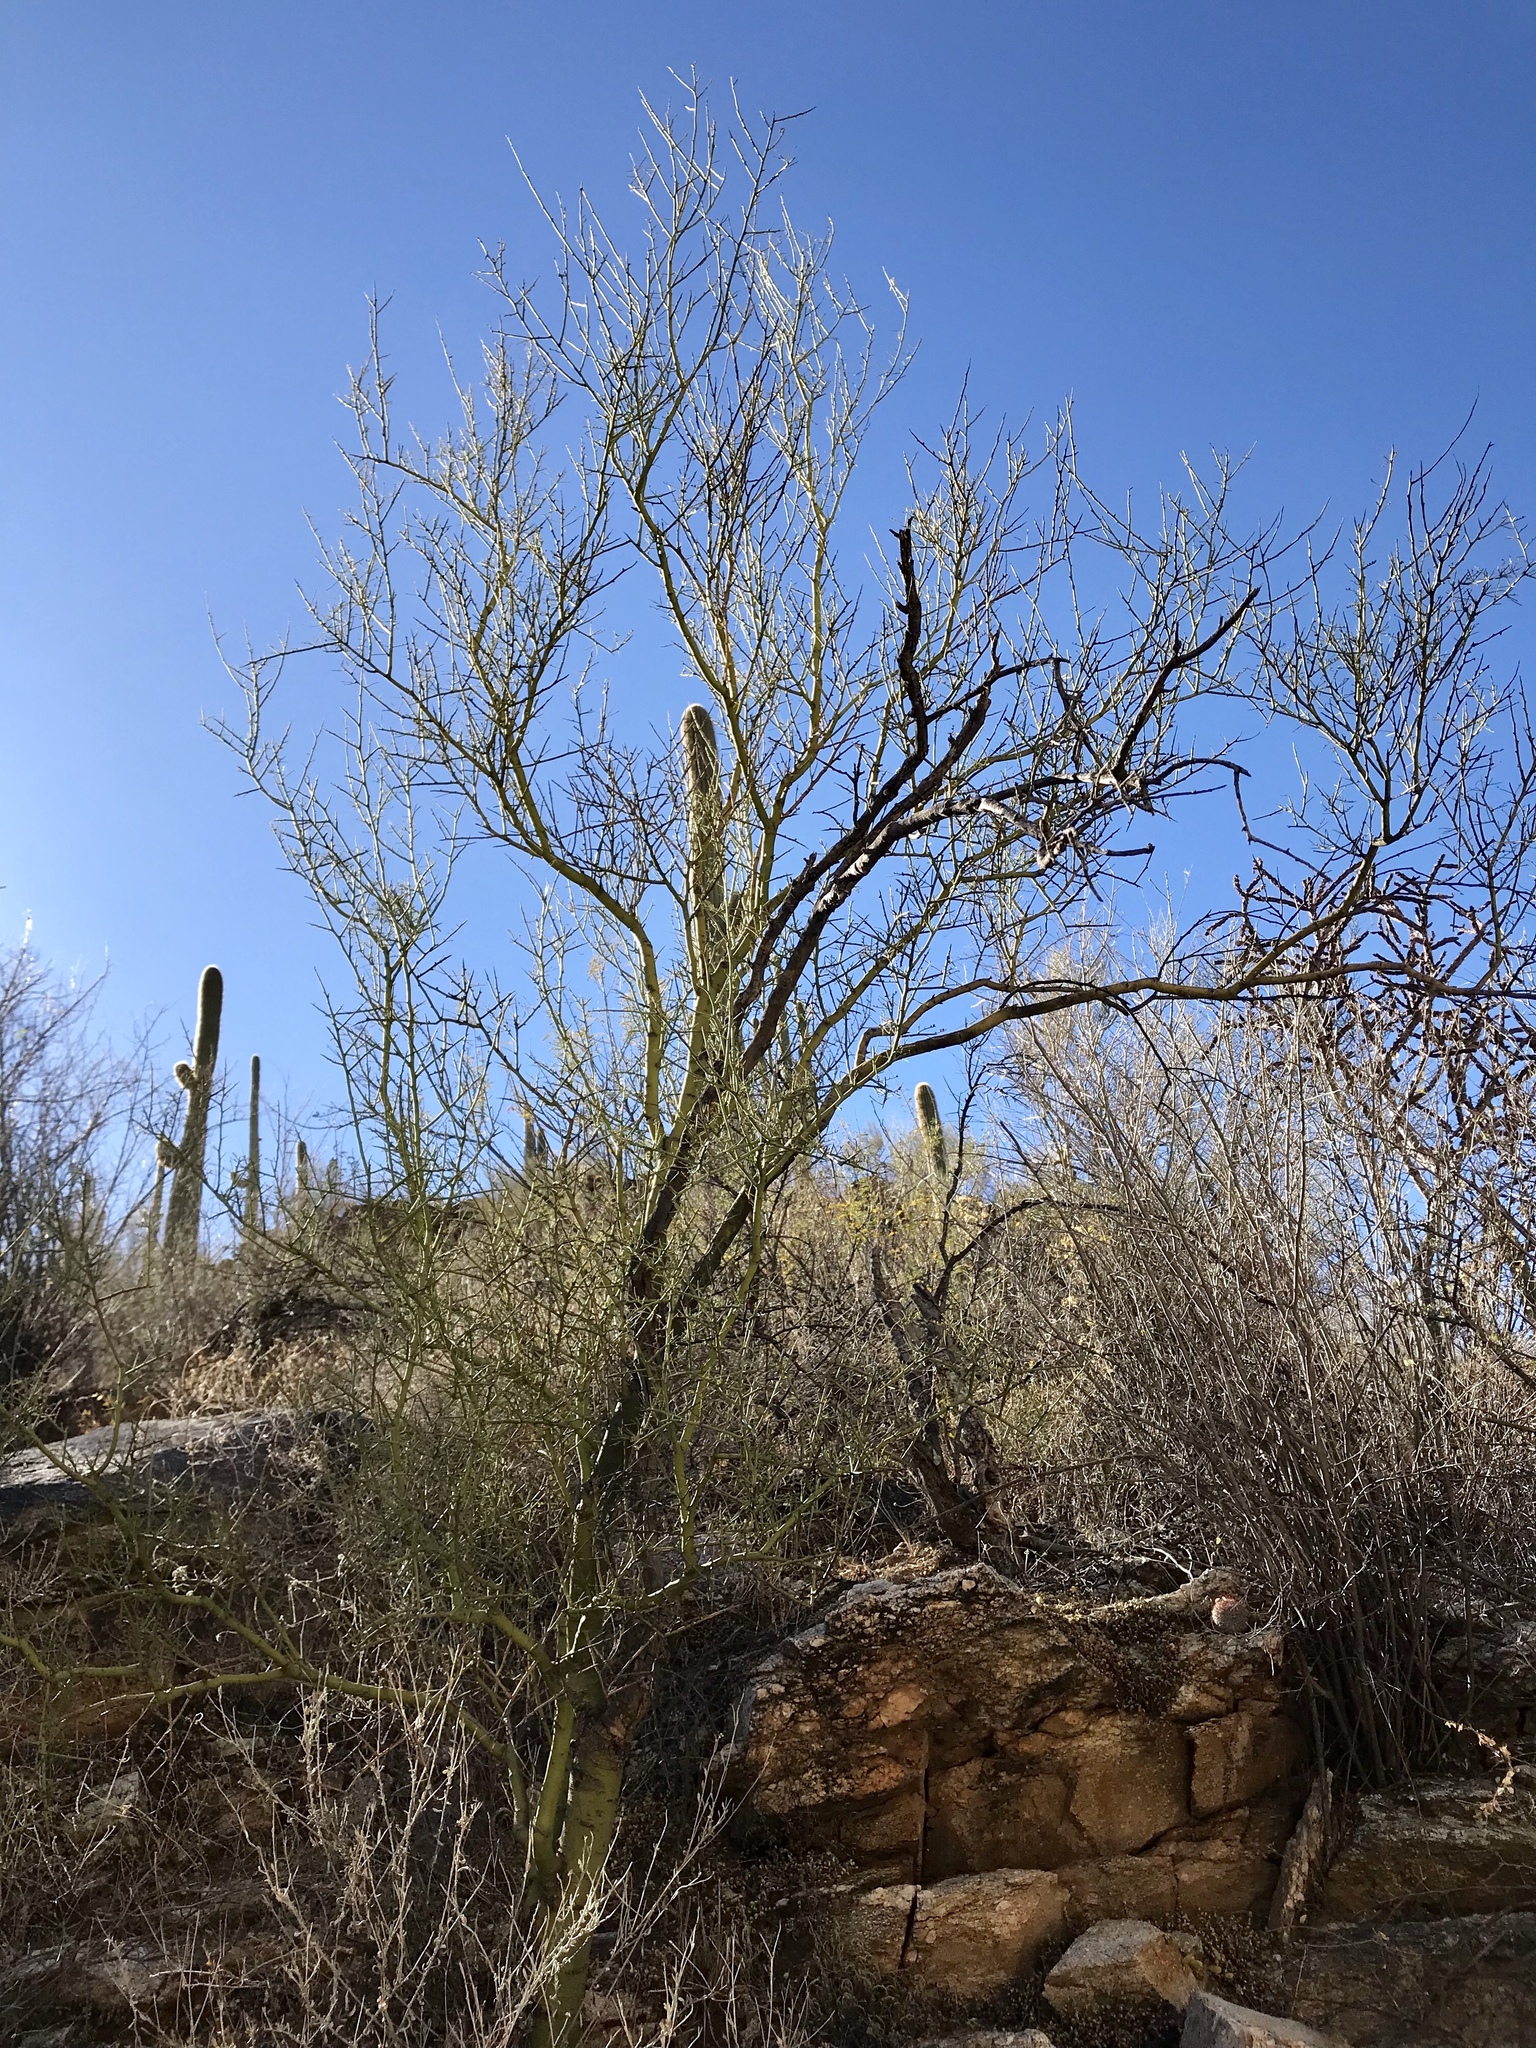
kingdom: Plantae
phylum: Tracheophyta
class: Magnoliopsida
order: Fabales
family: Fabaceae
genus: Parkinsonia
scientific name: Parkinsonia microphylla
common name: Yellow paloverde
